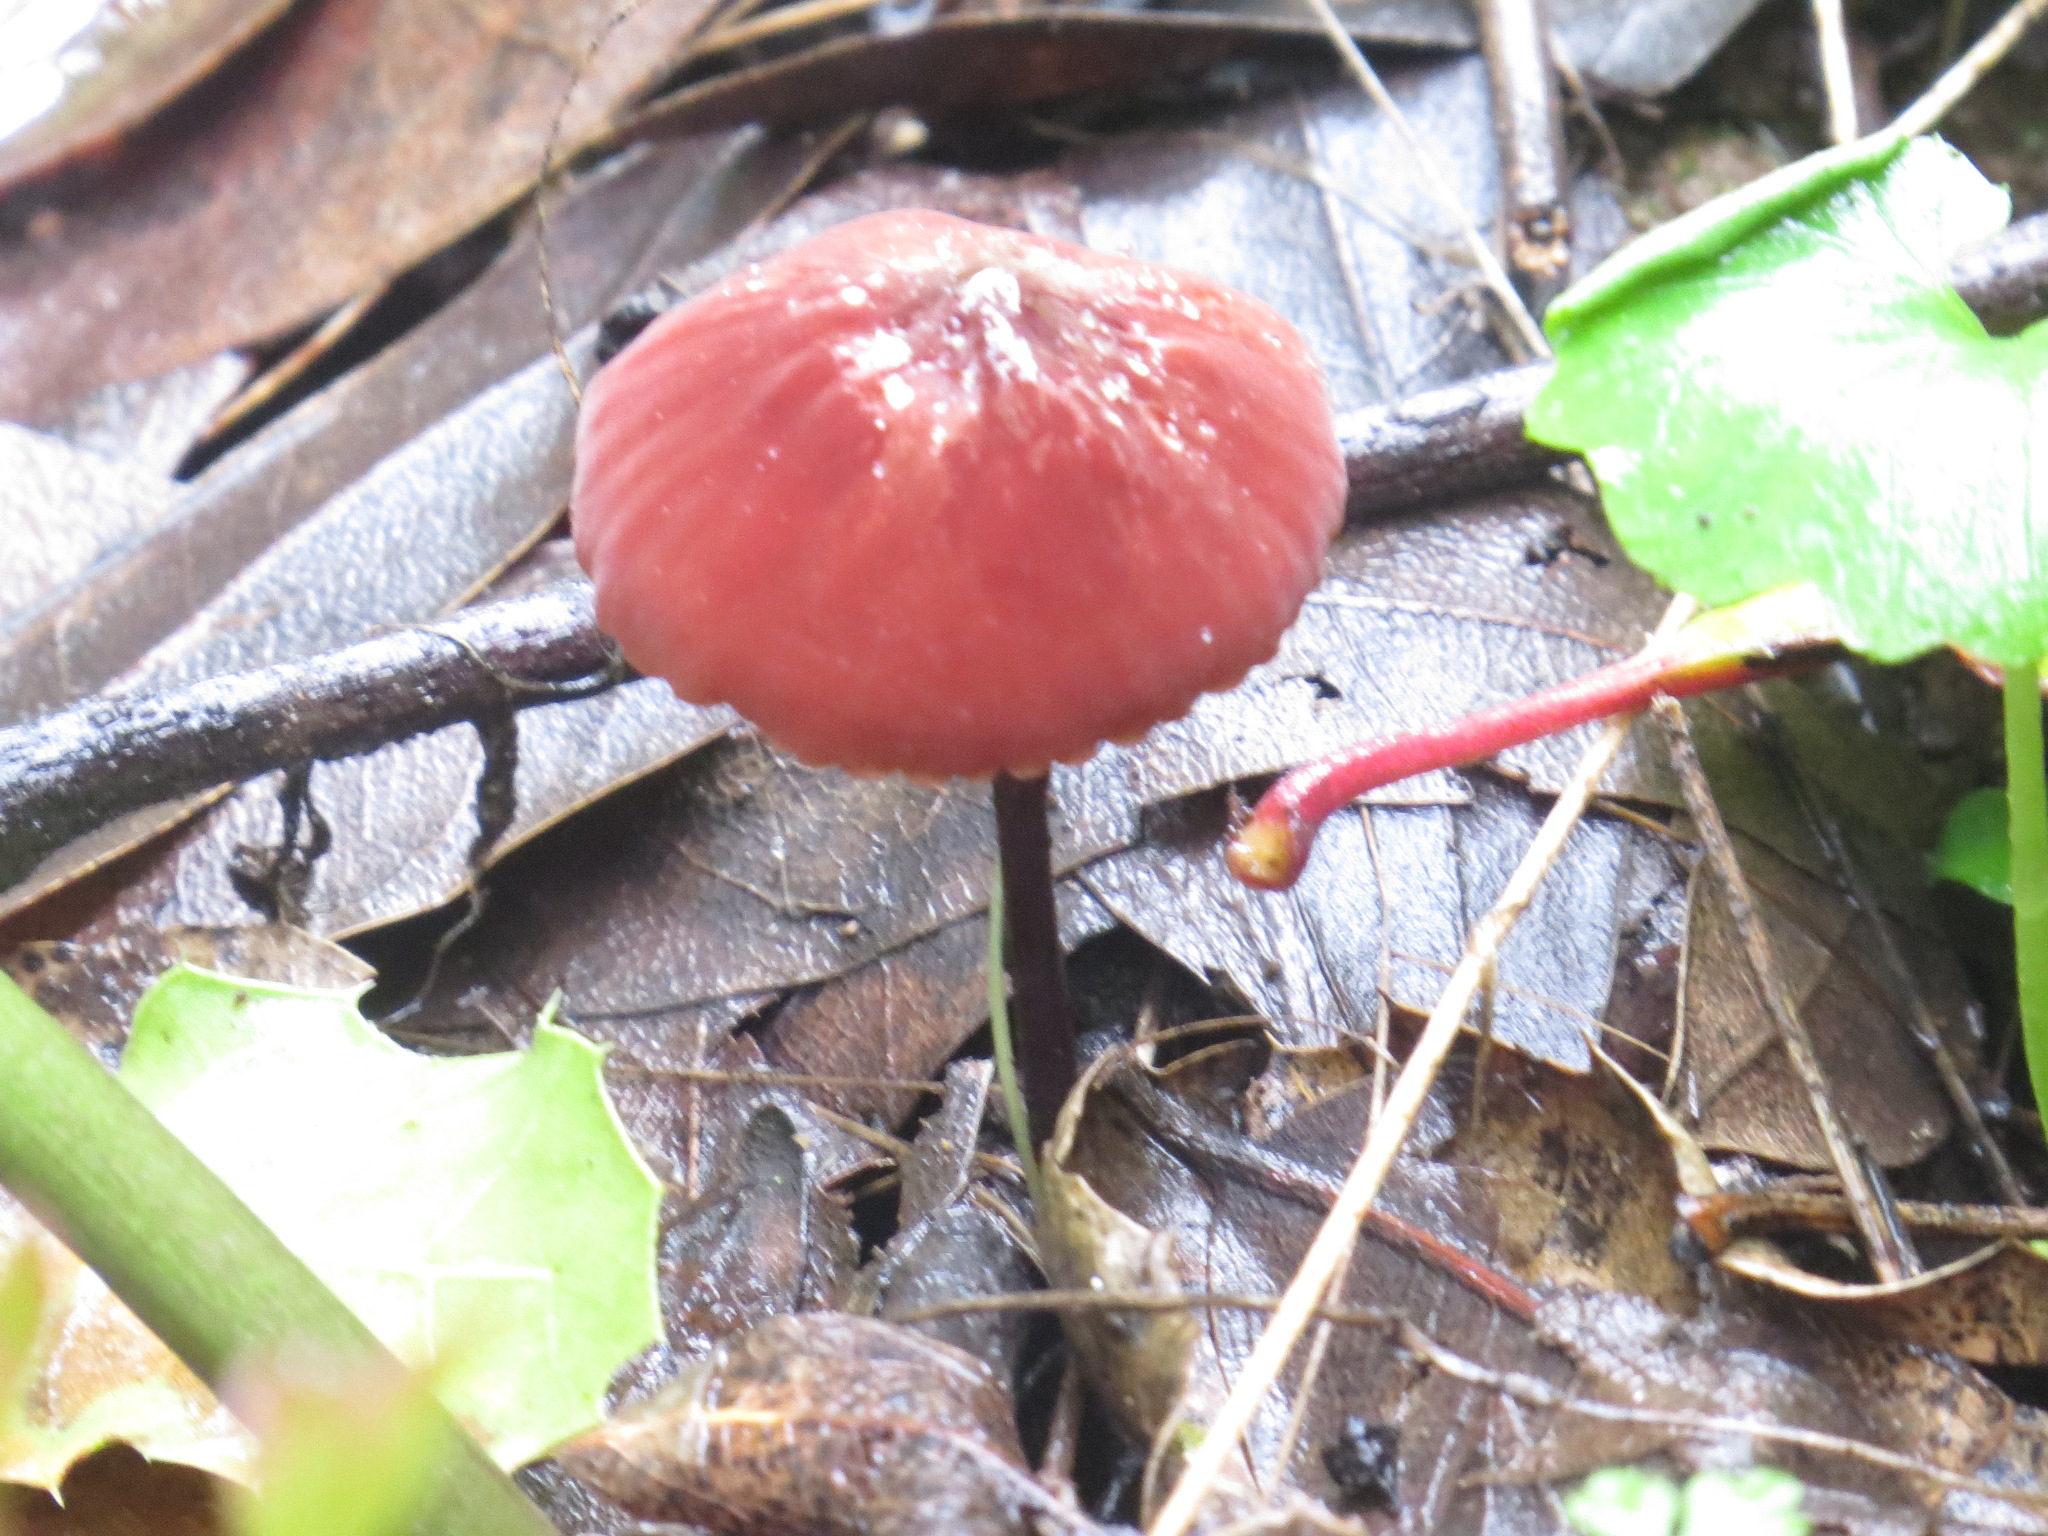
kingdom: Fungi
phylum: Basidiomycota
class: Agaricomycetes
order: Agaricales
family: Marasmiaceae
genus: Marasmius
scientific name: Marasmius plicatulus
